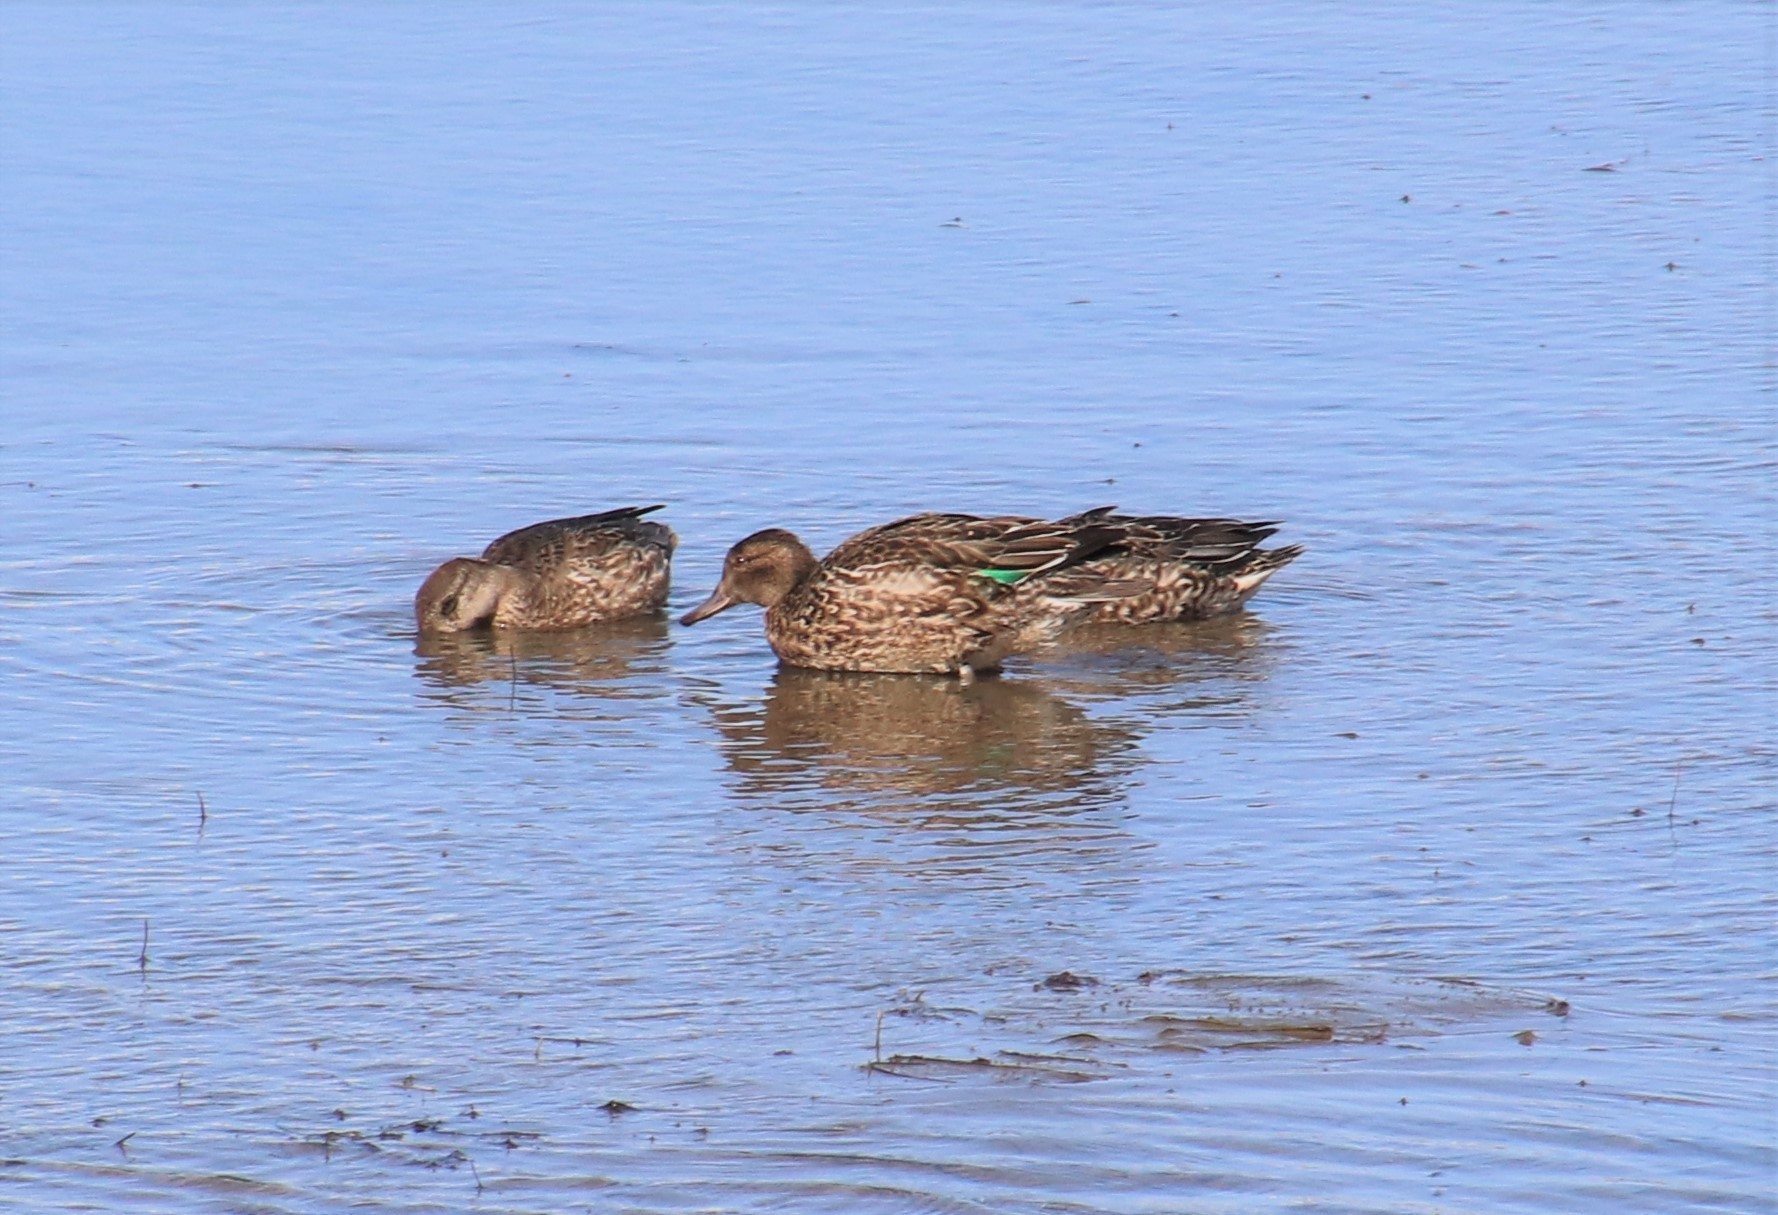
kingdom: Animalia
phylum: Chordata
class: Aves
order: Anseriformes
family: Anatidae
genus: Anas
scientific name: Anas crecca
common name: Eurasian teal
